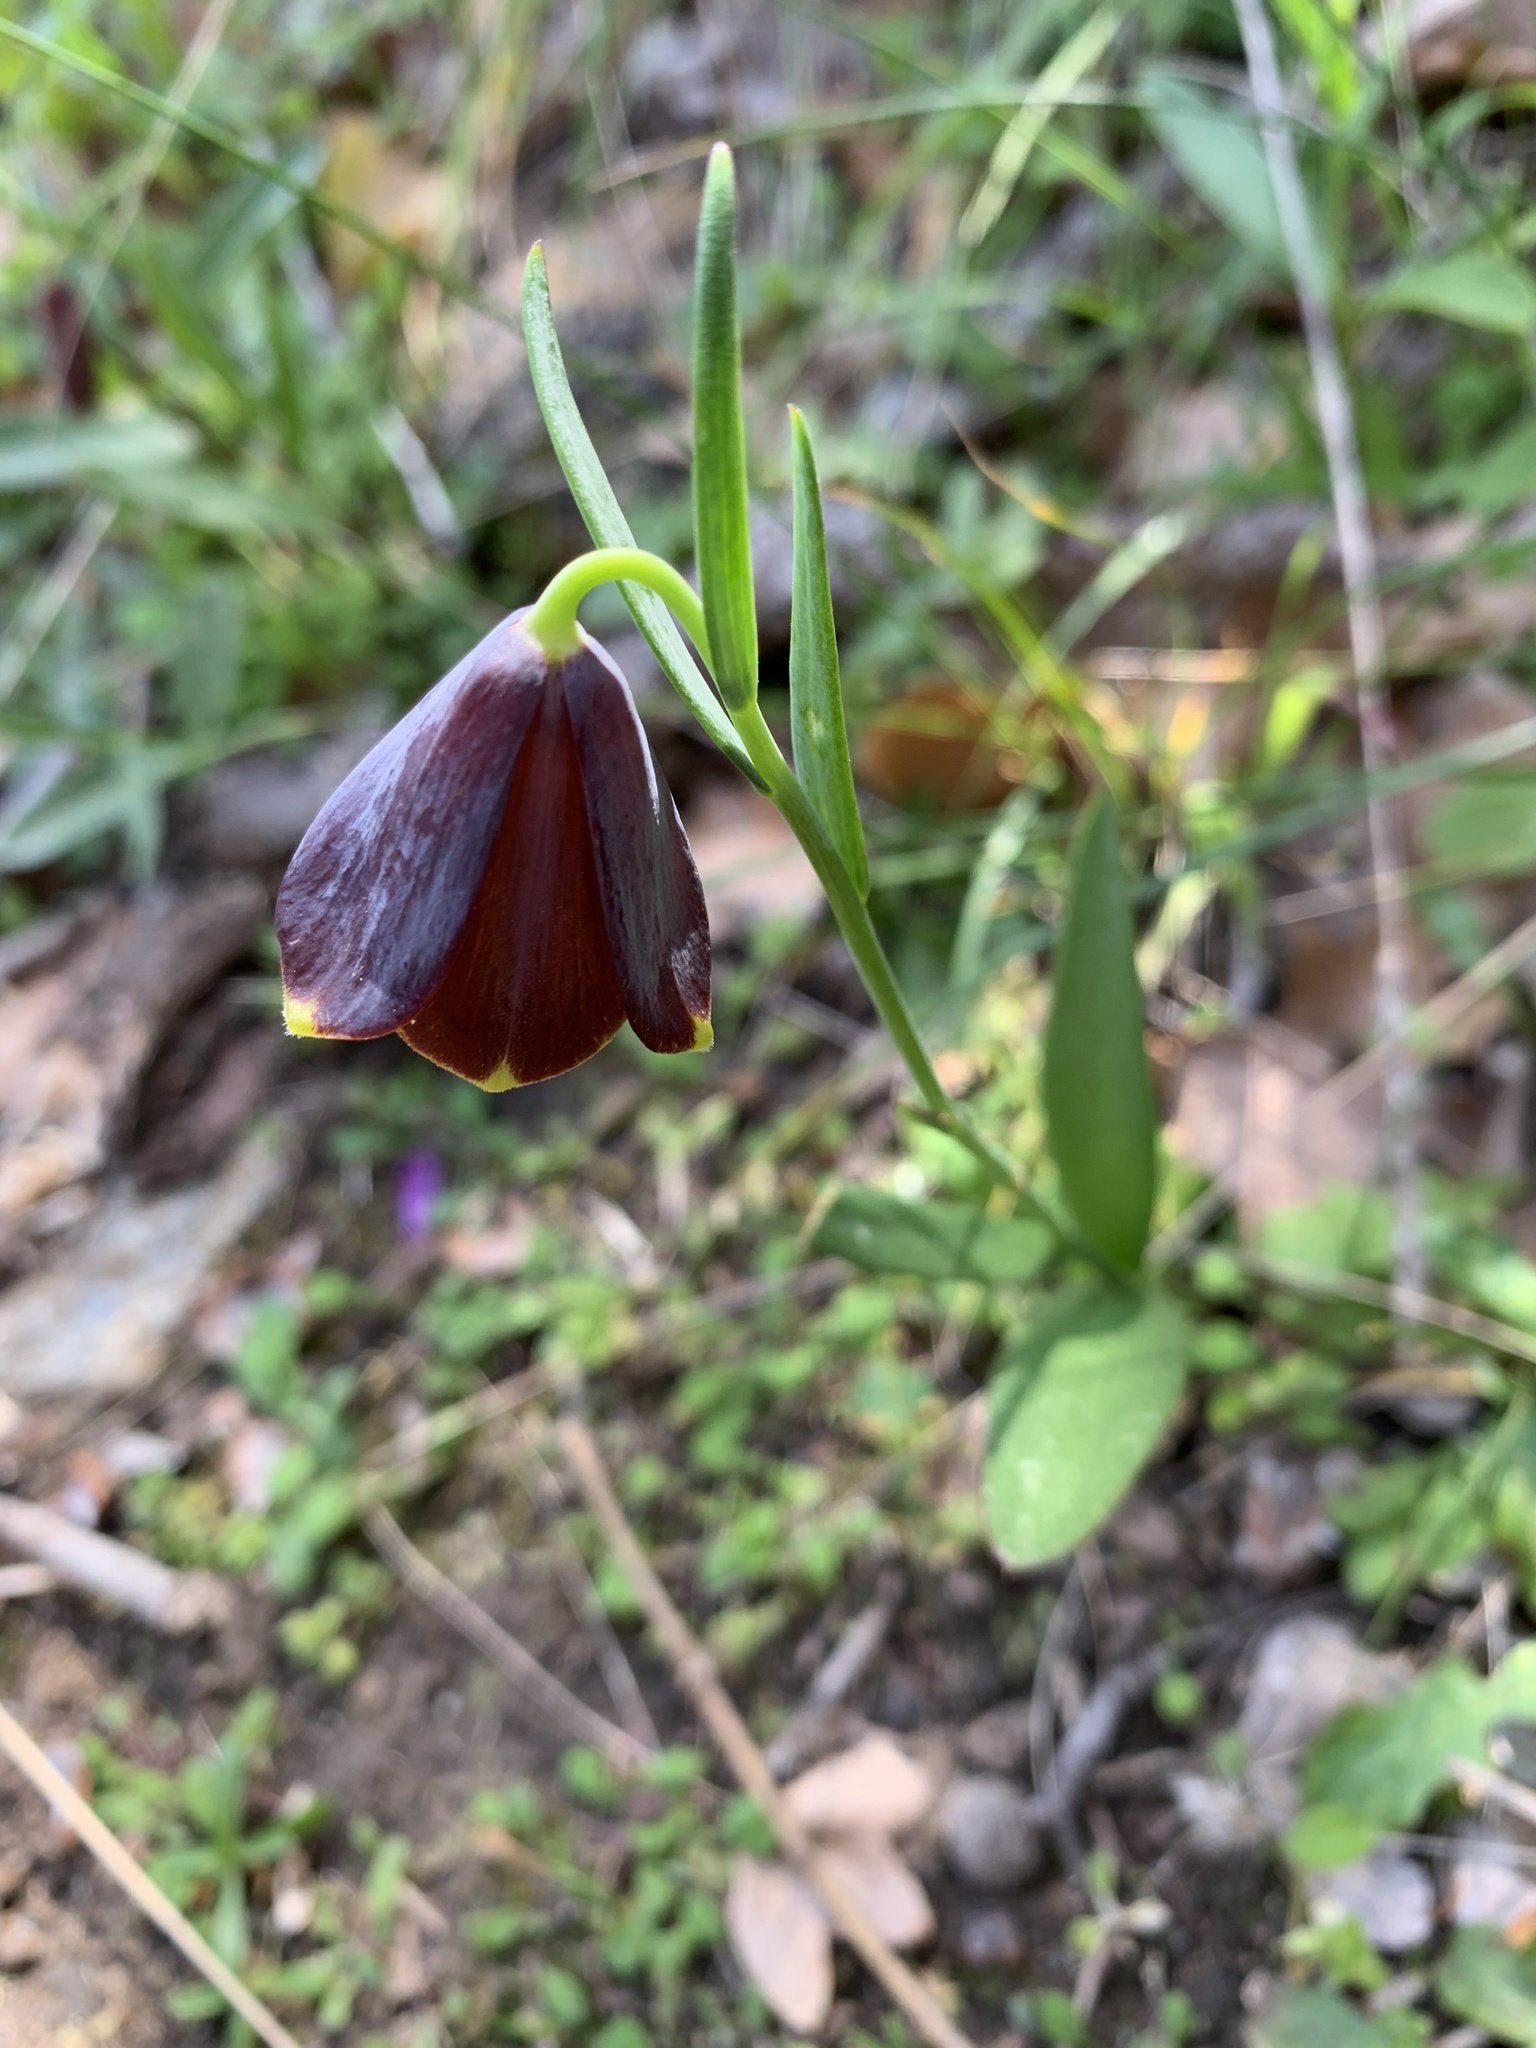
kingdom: Plantae
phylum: Tracheophyta
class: Liliopsida
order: Liliales
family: Liliaceae
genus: Fritillaria
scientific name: Fritillaria ehrhartii
